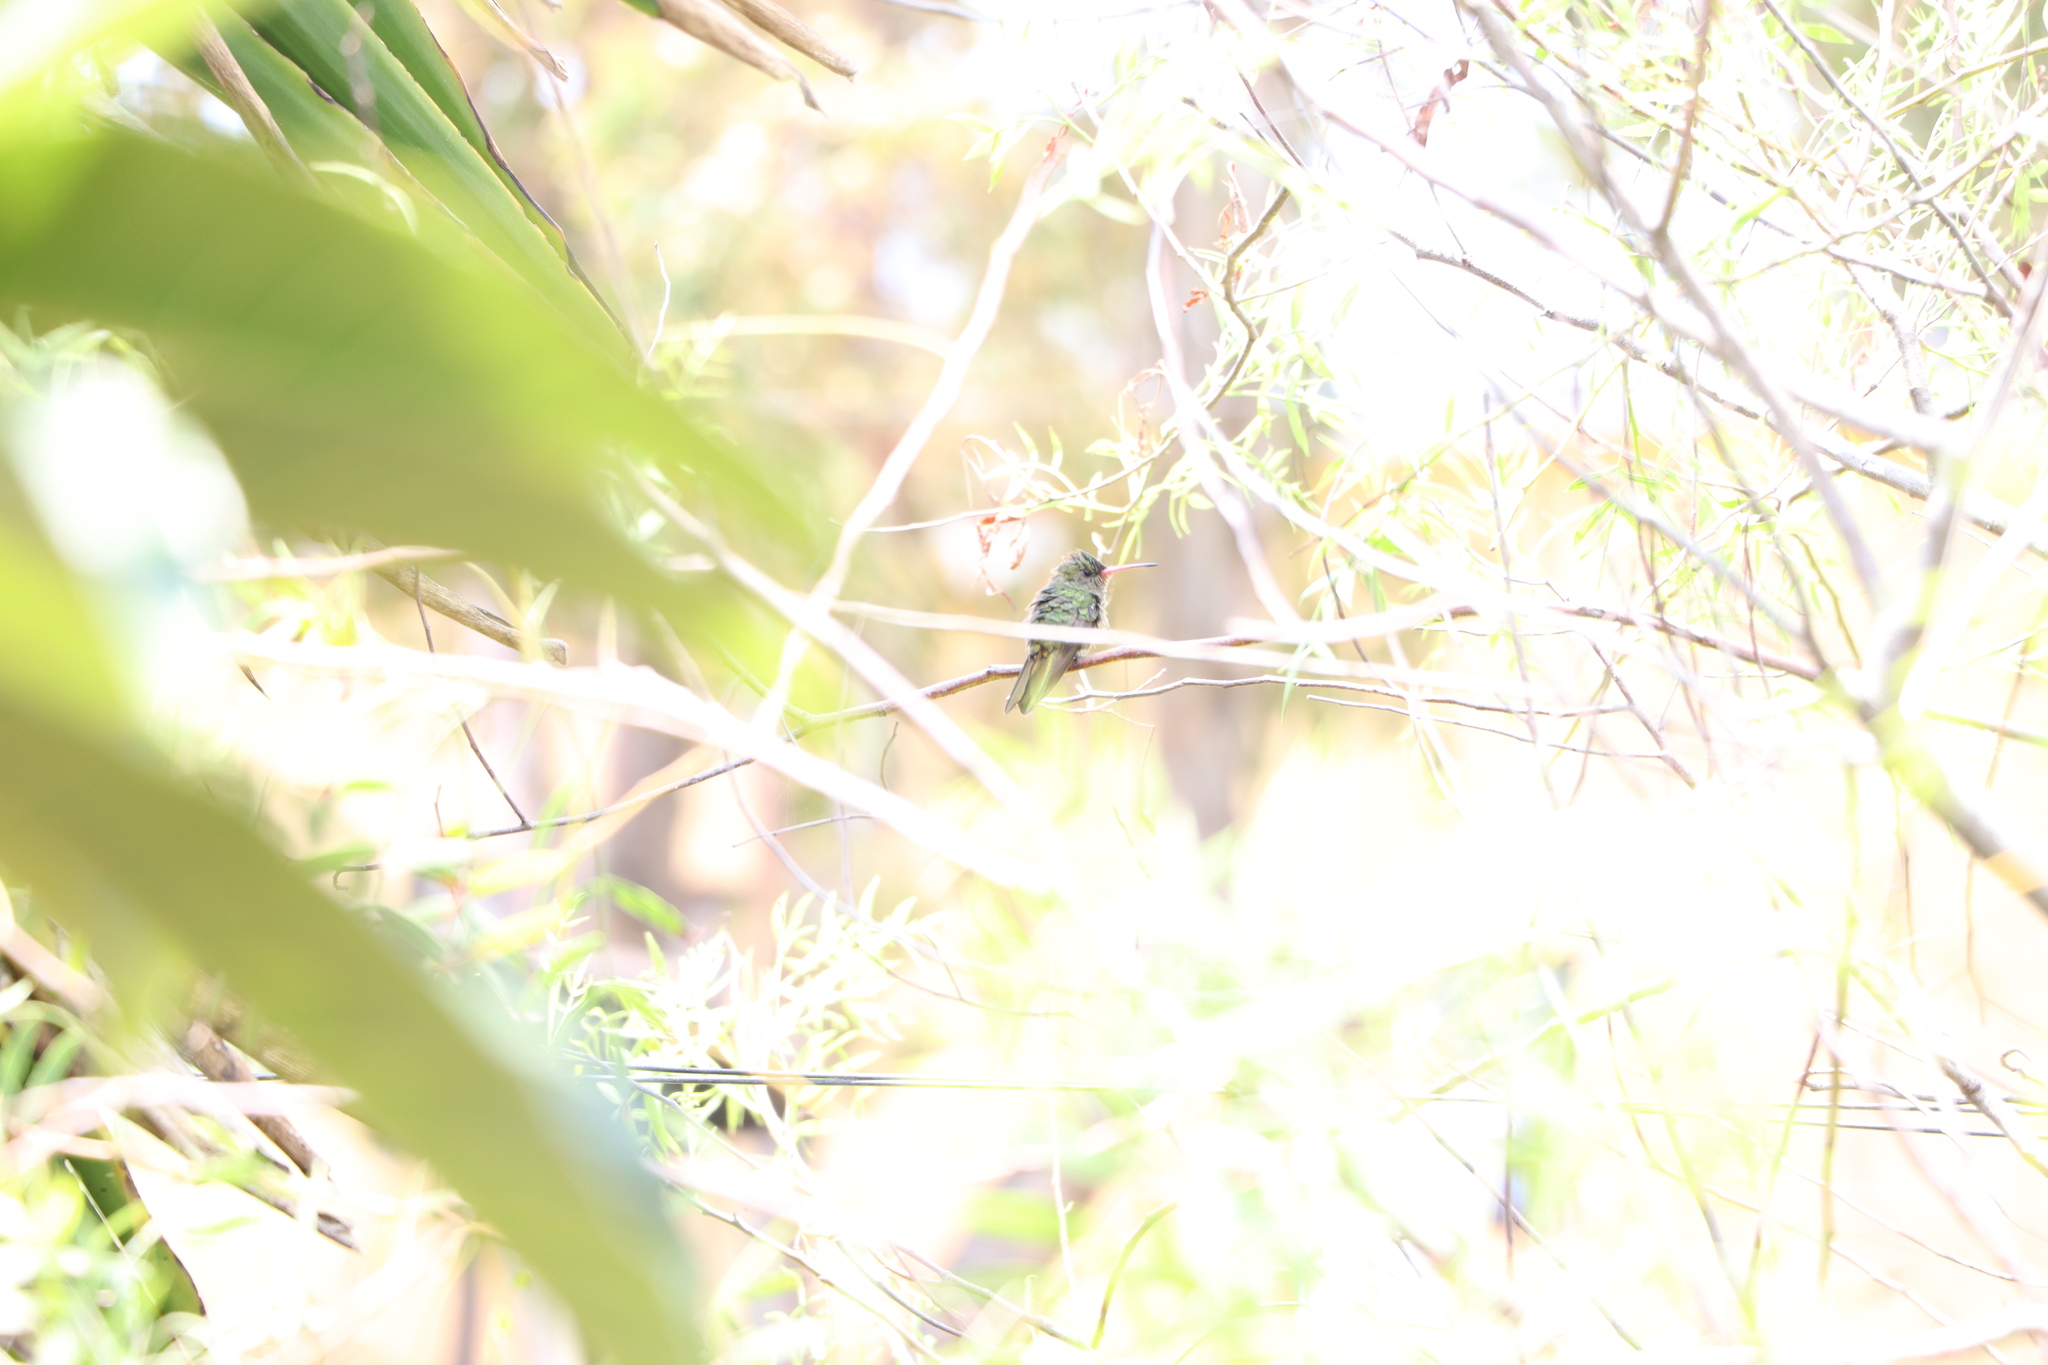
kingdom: Animalia
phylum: Chordata
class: Aves
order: Apodiformes
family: Trochilidae
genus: Chlorostilbon
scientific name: Chlorostilbon lucidus
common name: Glittering-bellied emerald
